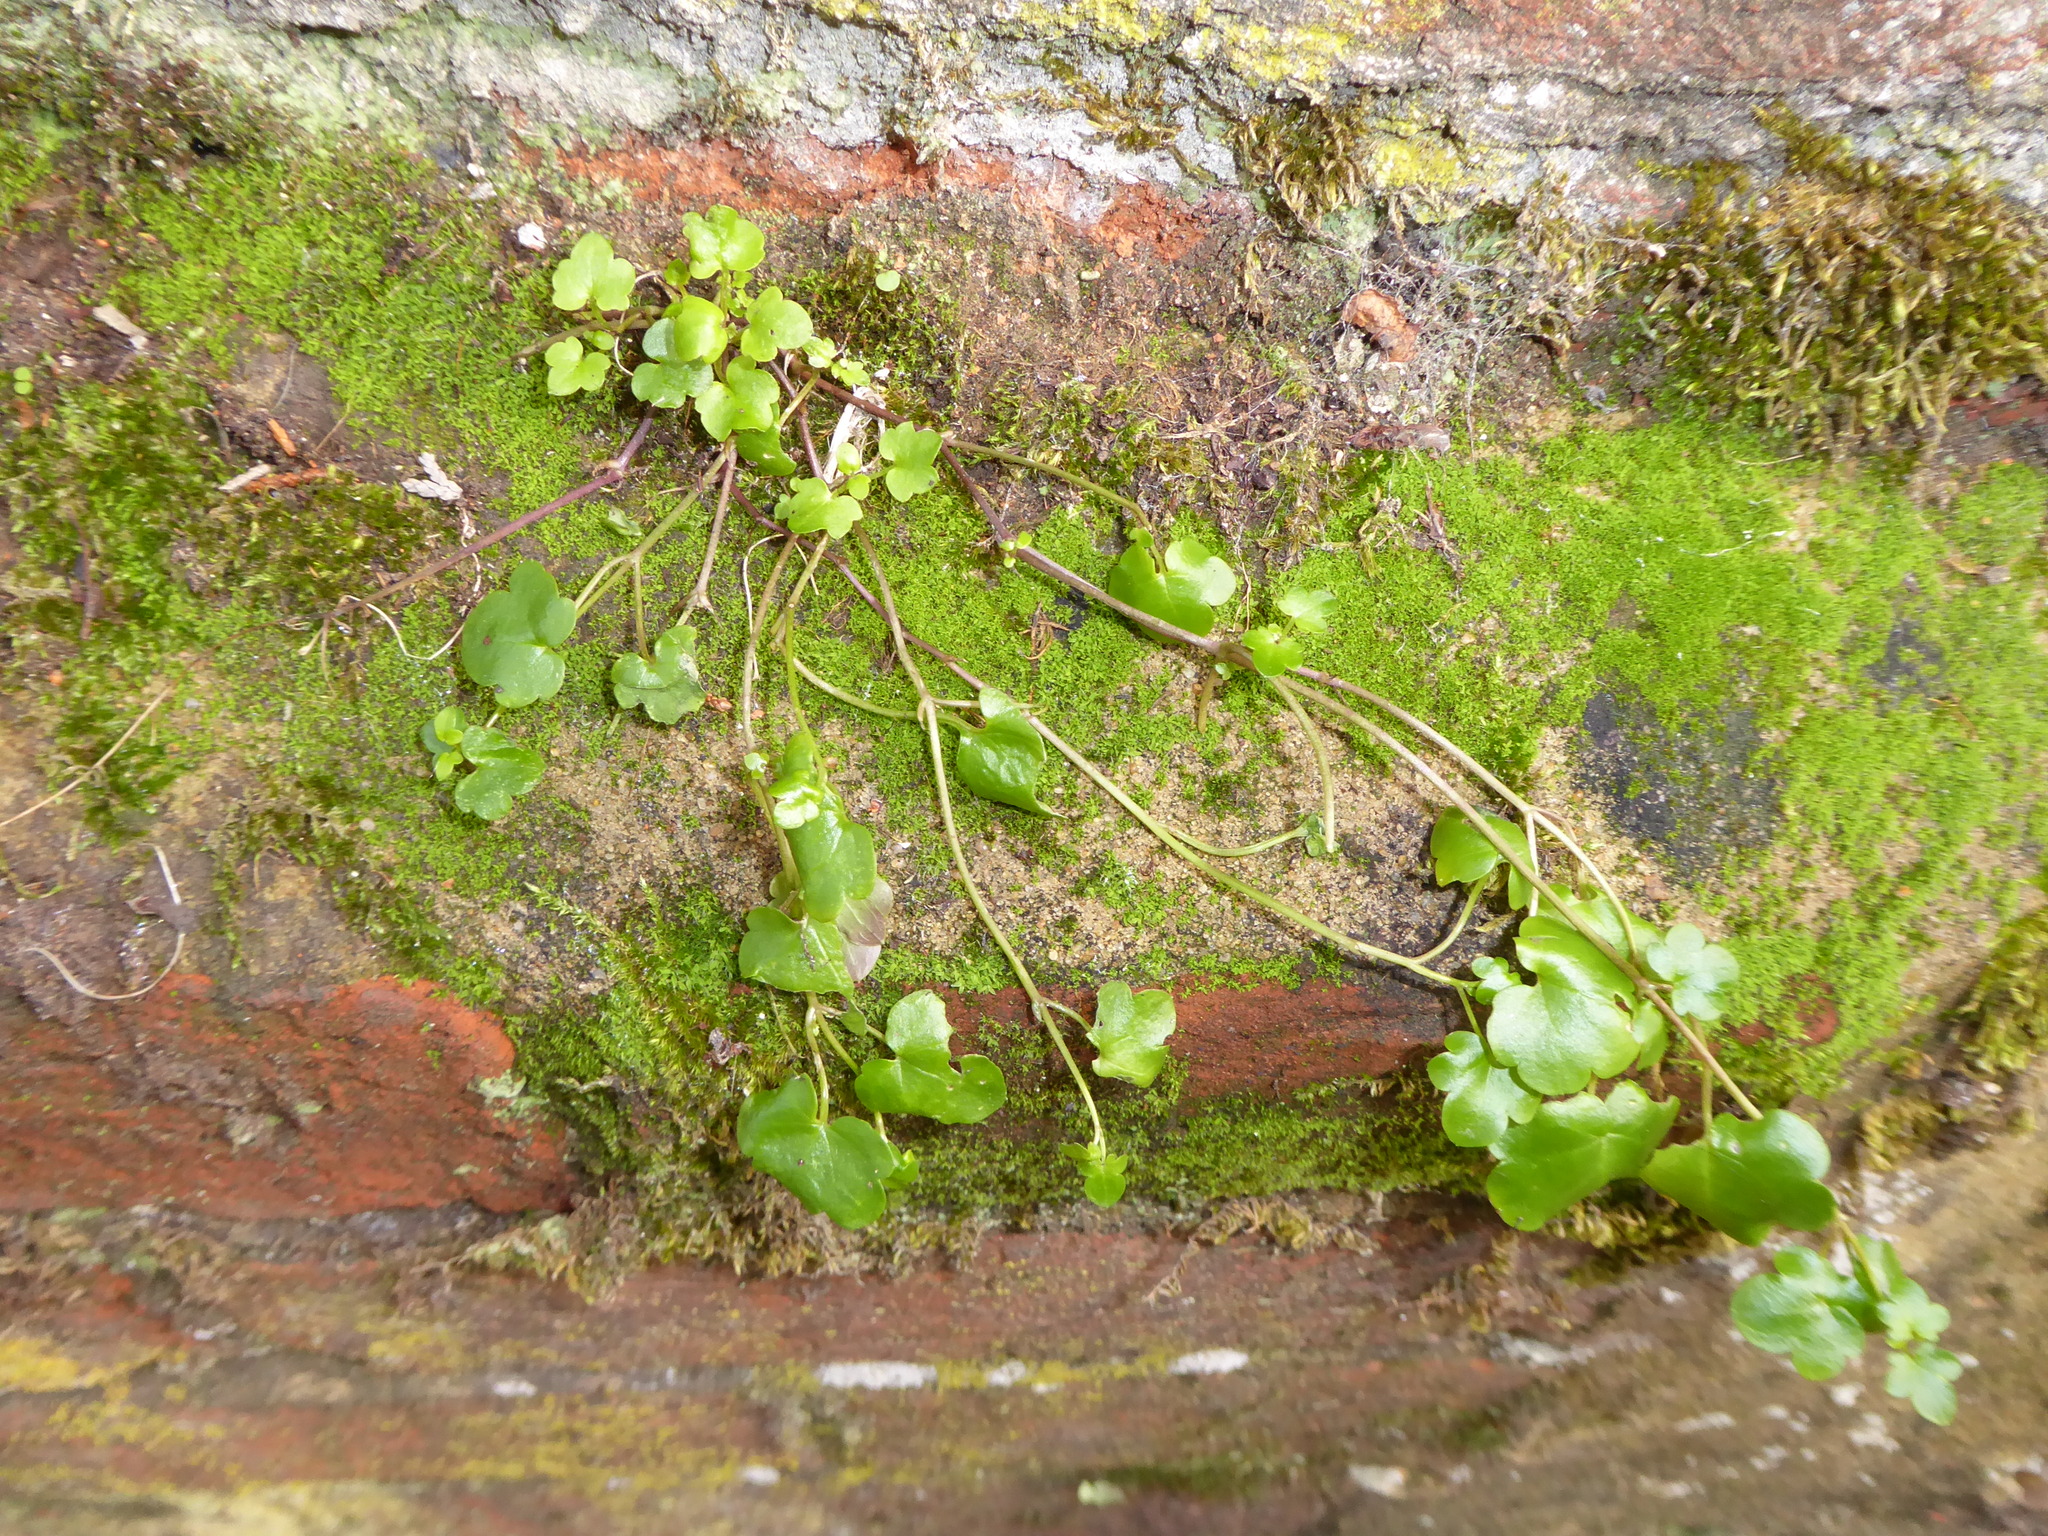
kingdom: Plantae
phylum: Tracheophyta
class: Magnoliopsida
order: Lamiales
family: Plantaginaceae
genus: Cymbalaria
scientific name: Cymbalaria muralis
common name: Ivy-leaved toadflax
